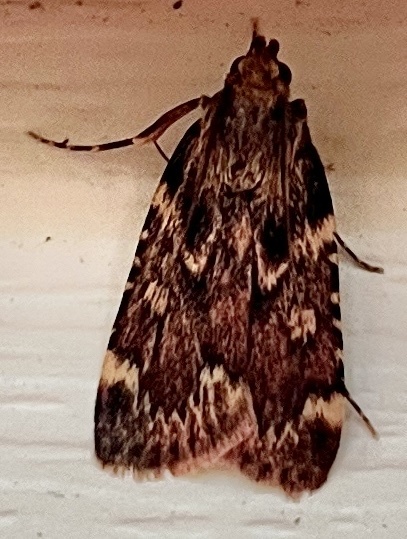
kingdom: Animalia
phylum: Arthropoda
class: Insecta
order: Lepidoptera
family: Pyralidae
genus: Aglossa
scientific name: Aglossa cuprina
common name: Grease moth
